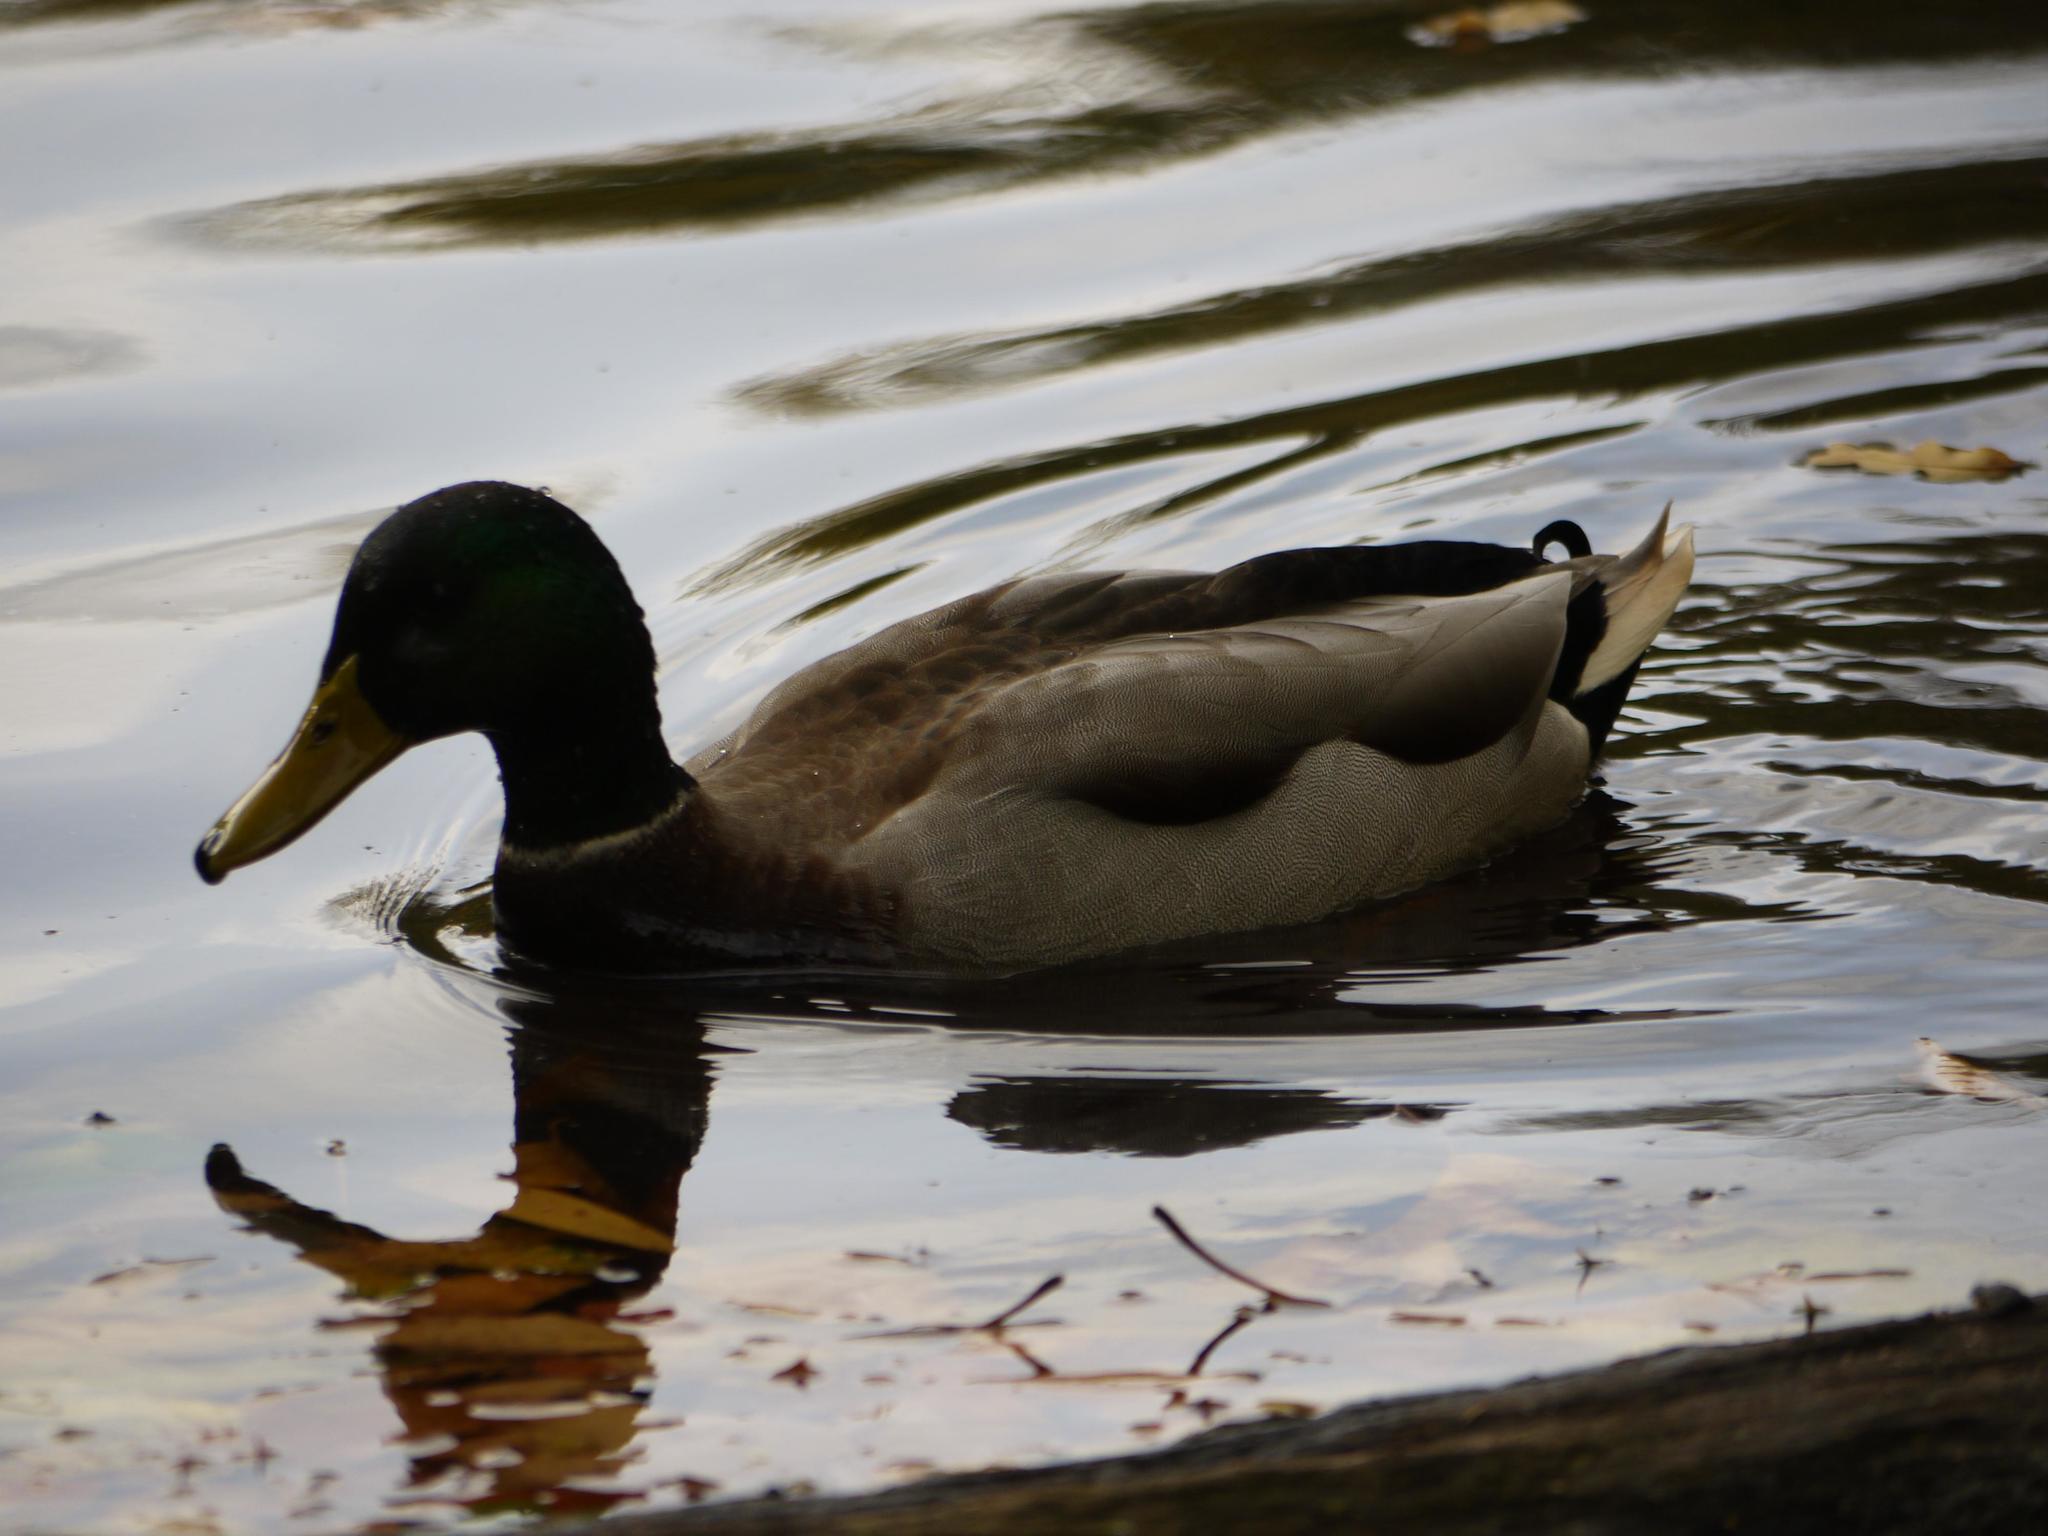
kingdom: Animalia
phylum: Chordata
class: Aves
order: Anseriformes
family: Anatidae
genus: Anas
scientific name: Anas platyrhynchos
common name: Mallard
